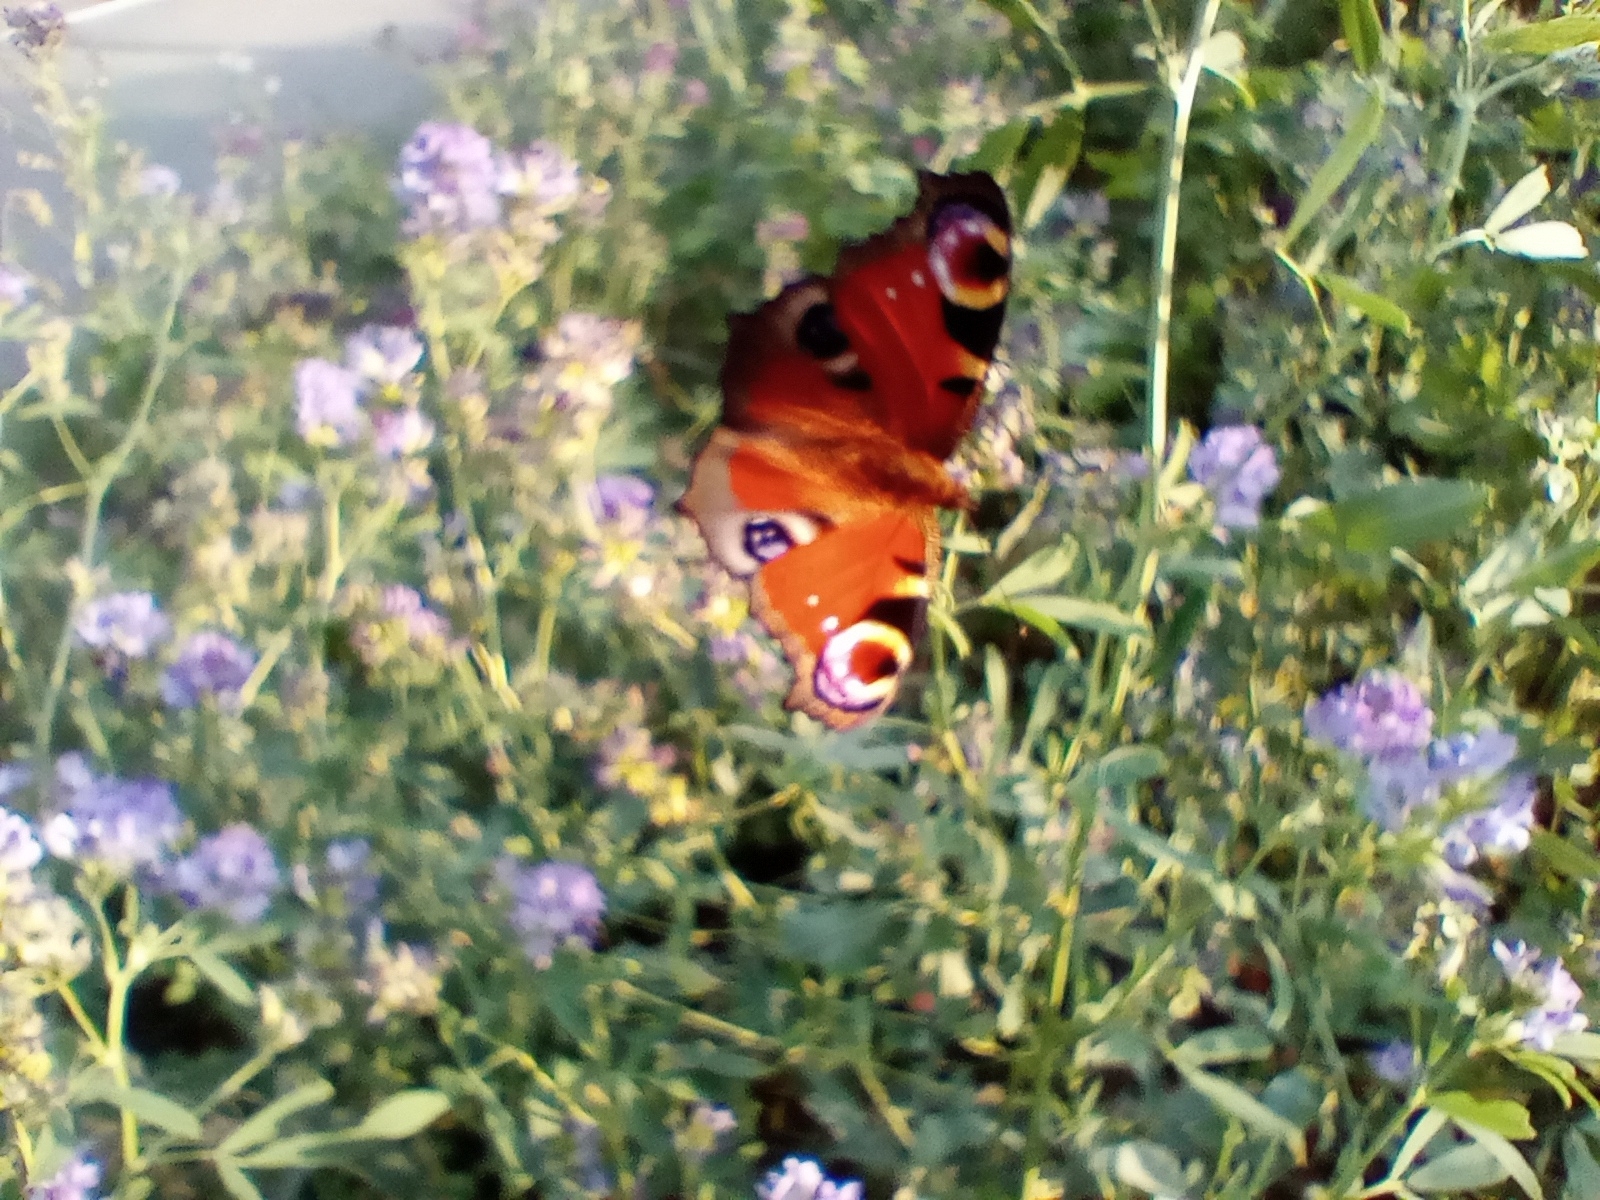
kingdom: Animalia
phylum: Arthropoda
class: Insecta
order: Lepidoptera
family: Nymphalidae
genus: Aglais
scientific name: Aglais io
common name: Peacock
